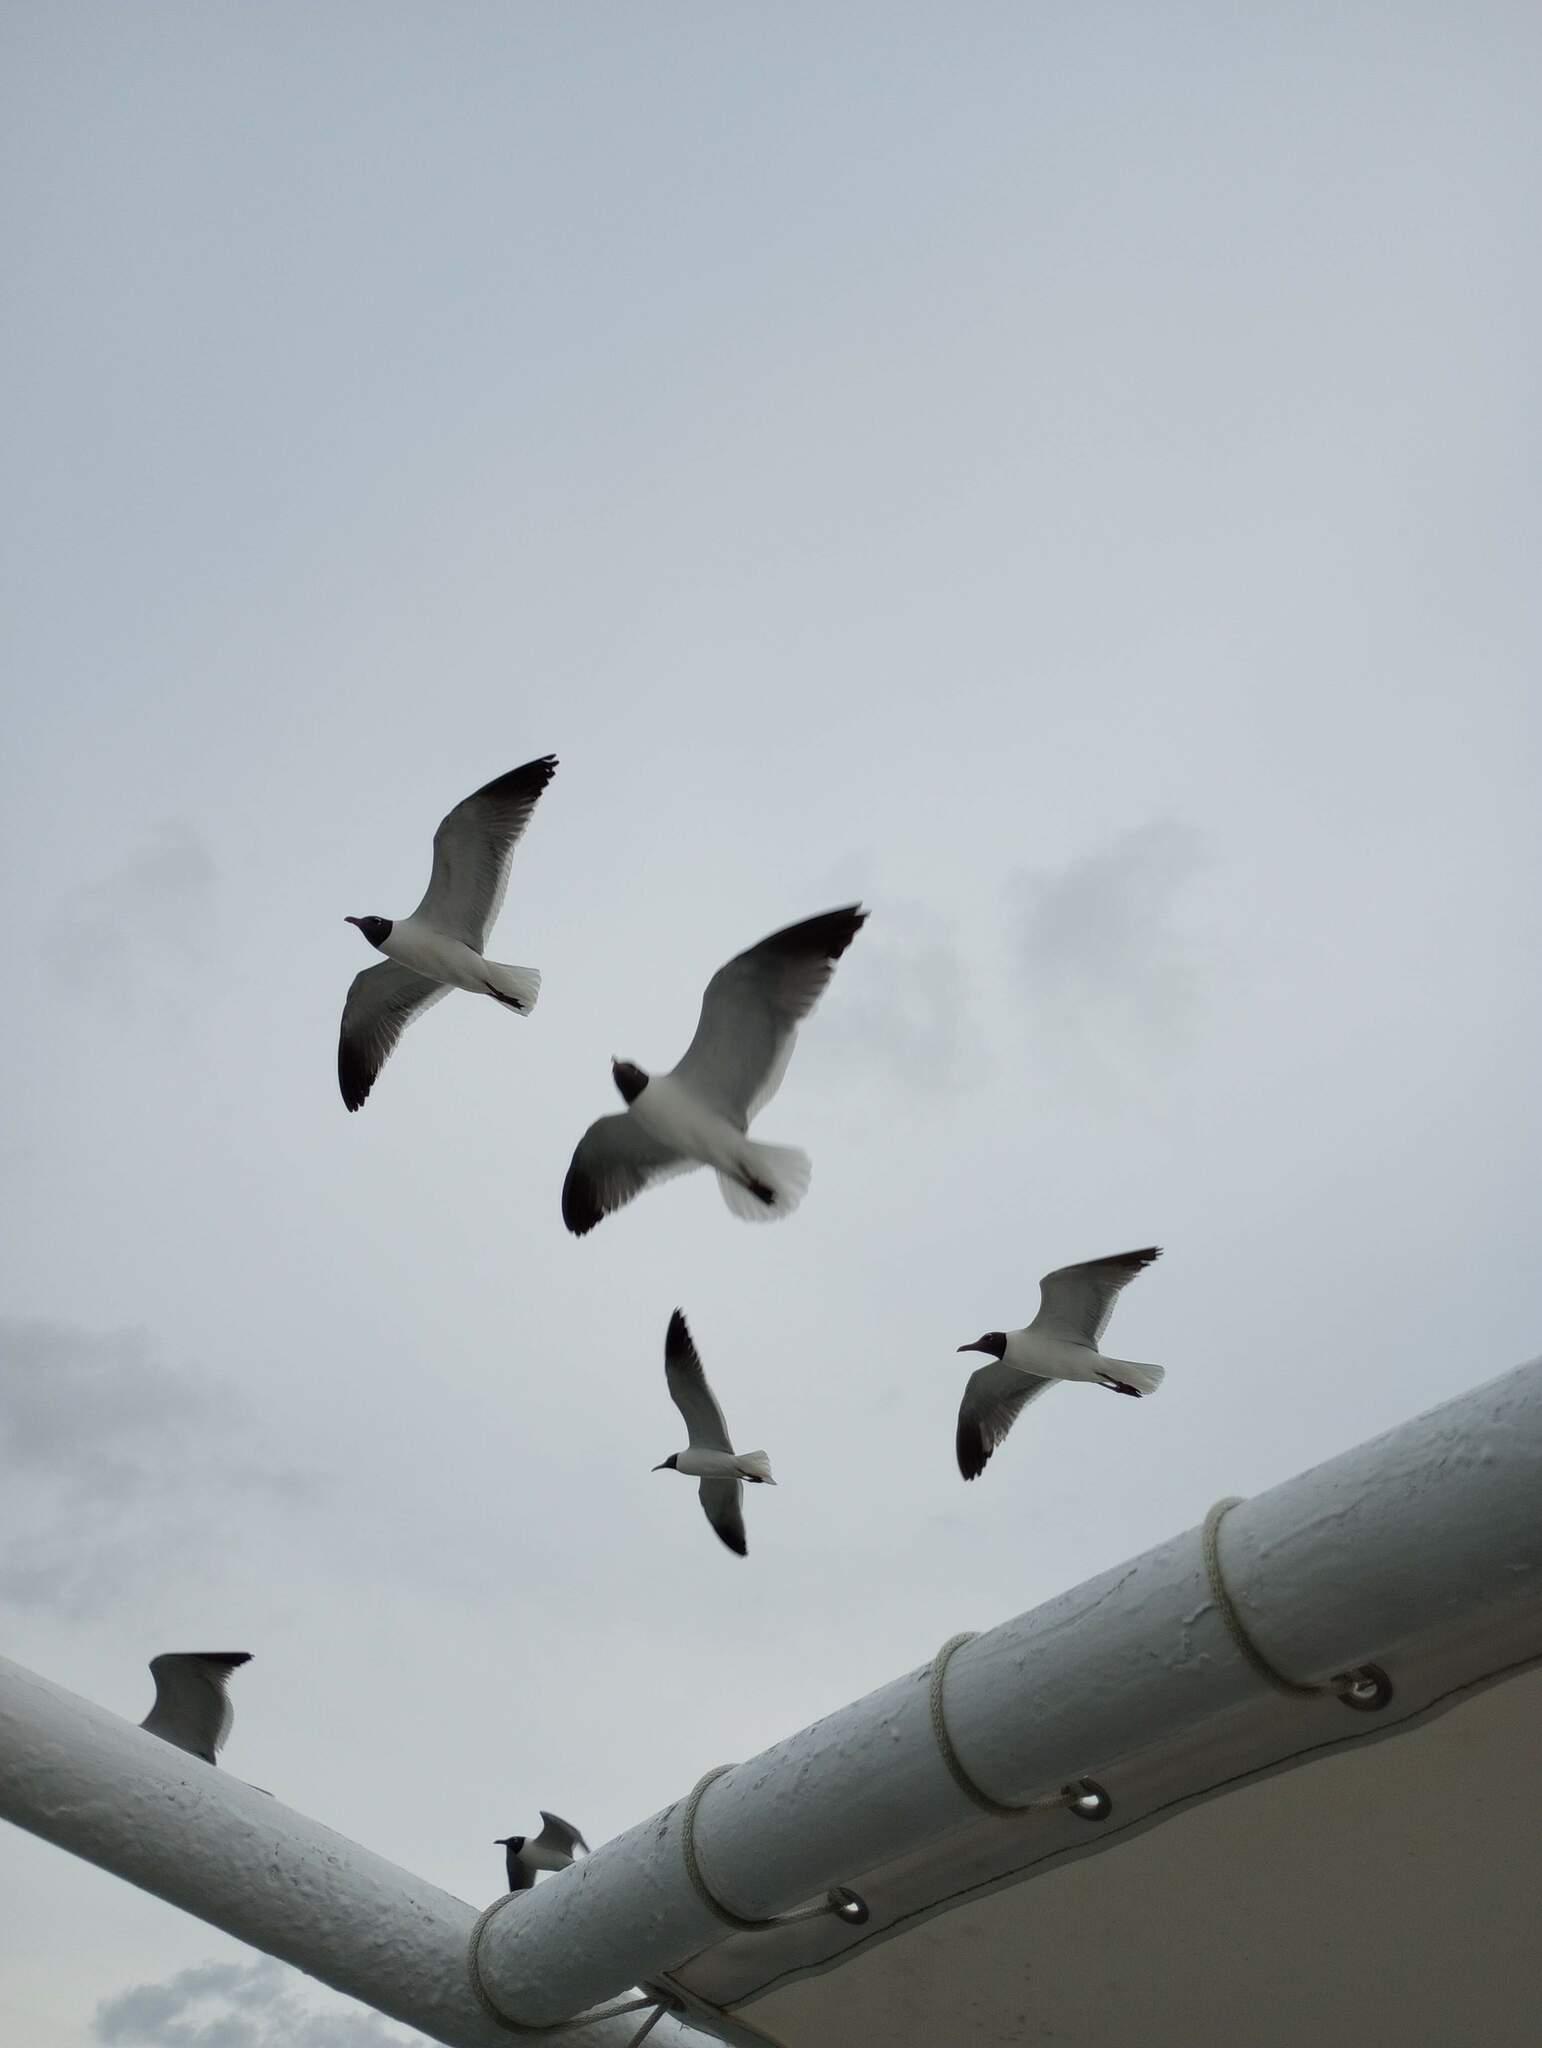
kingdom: Animalia
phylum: Chordata
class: Aves
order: Charadriiformes
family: Laridae
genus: Leucophaeus
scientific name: Leucophaeus atricilla
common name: Laughing gull
